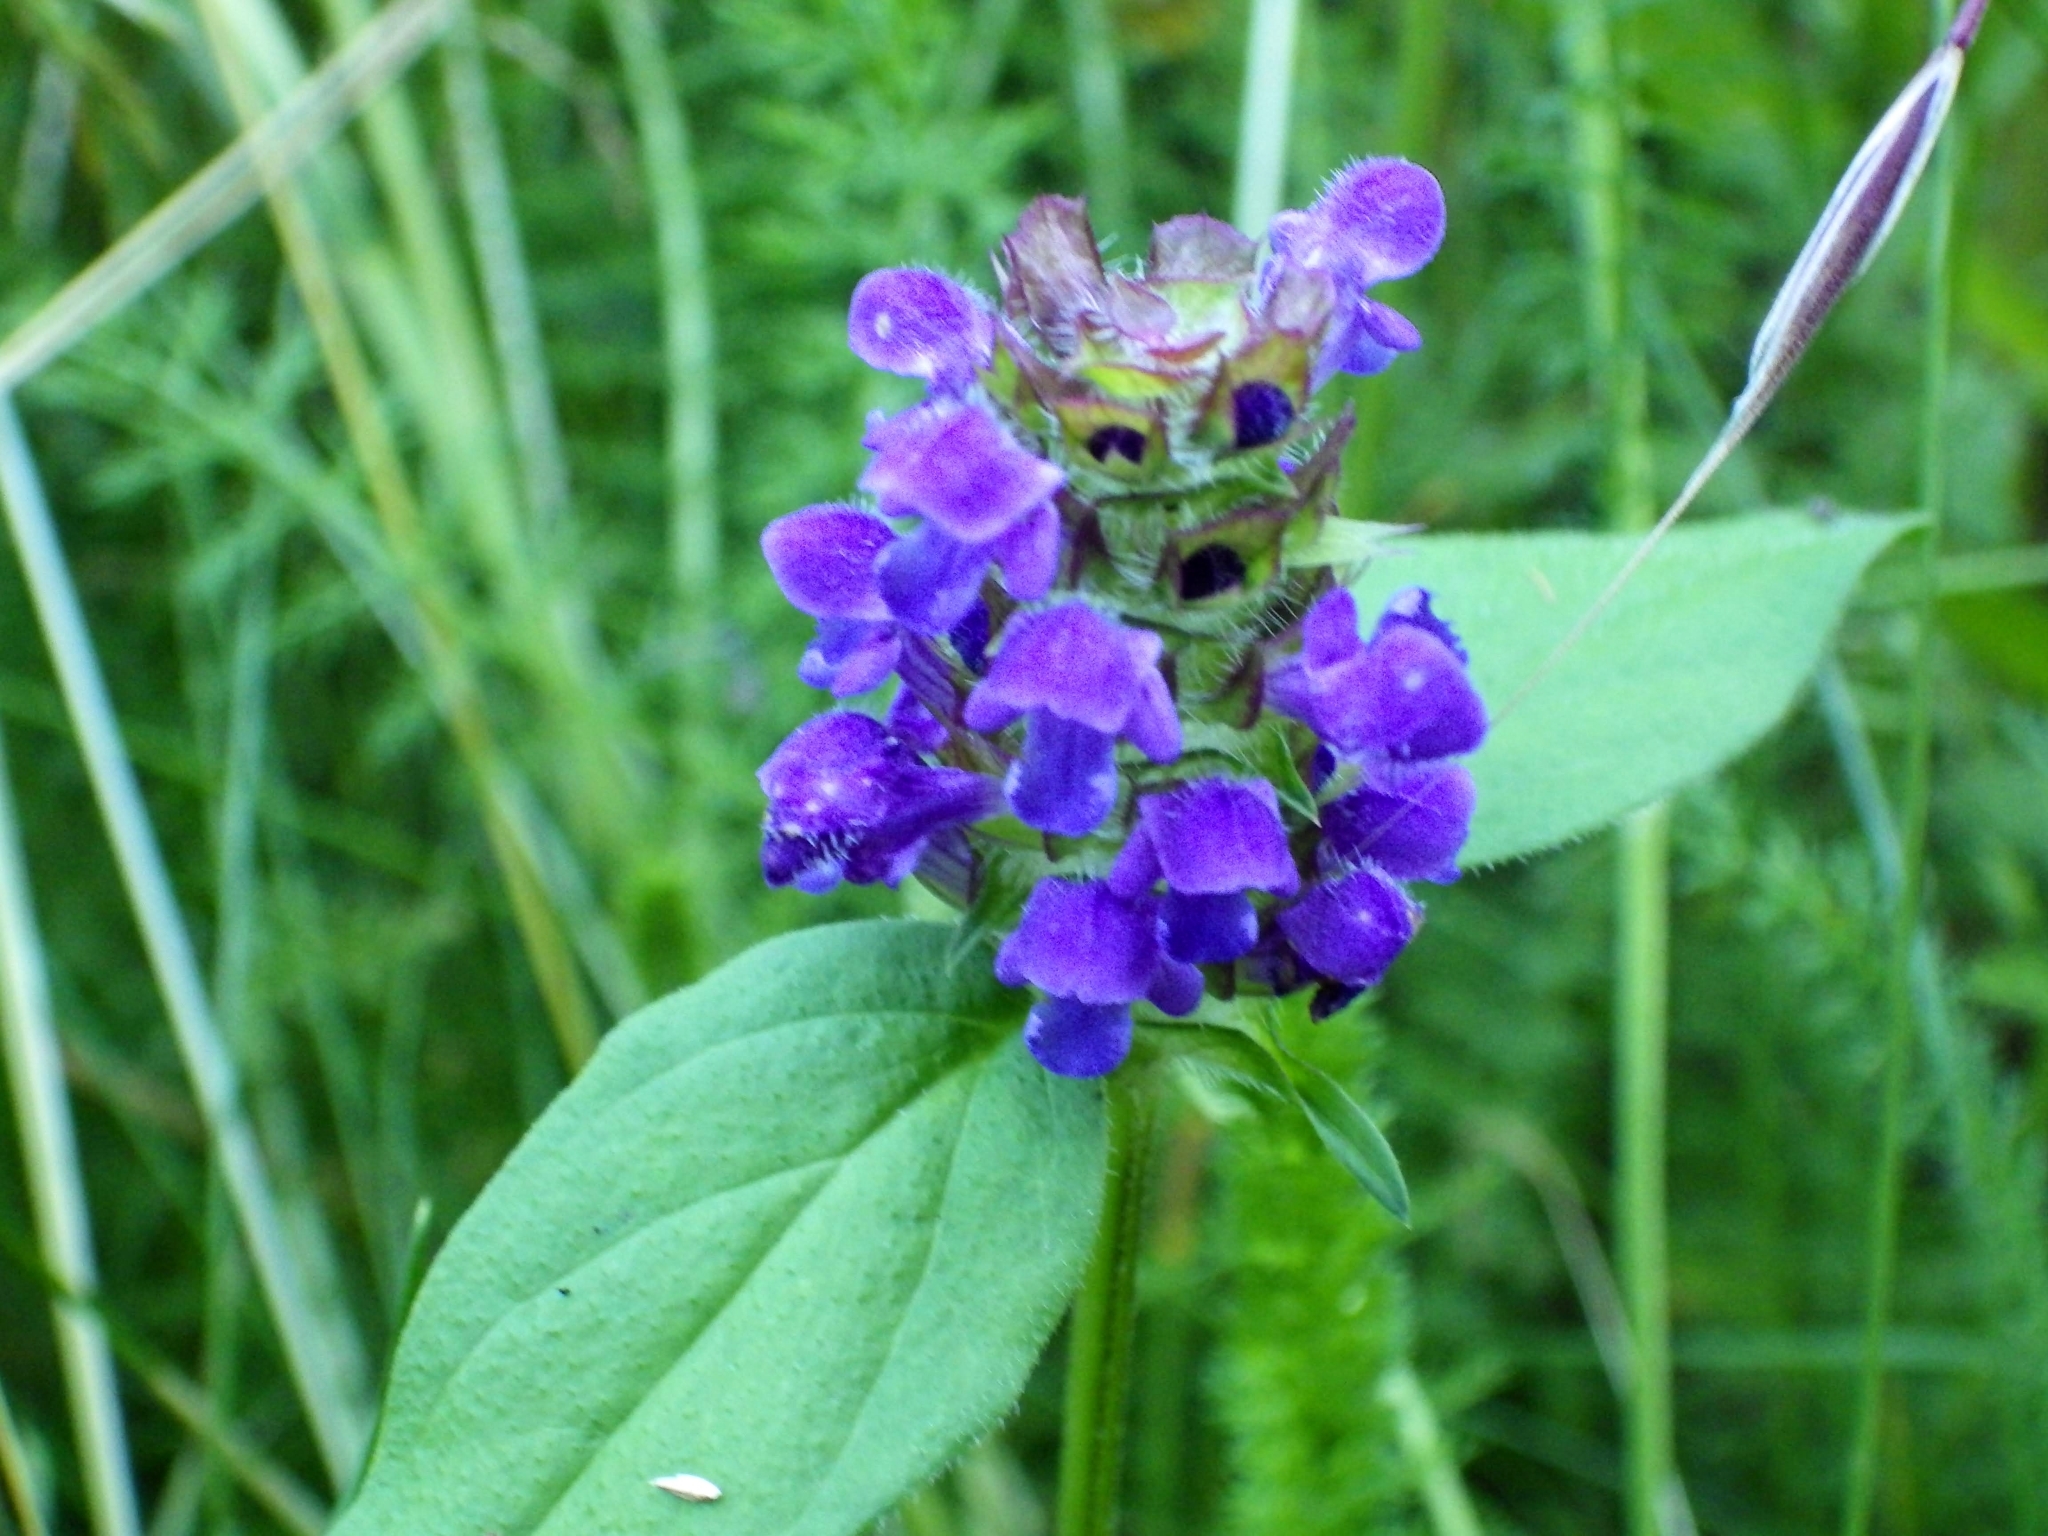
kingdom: Plantae
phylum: Tracheophyta
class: Magnoliopsida
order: Lamiales
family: Lamiaceae
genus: Prunella
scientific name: Prunella vulgaris
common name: Heal-all
